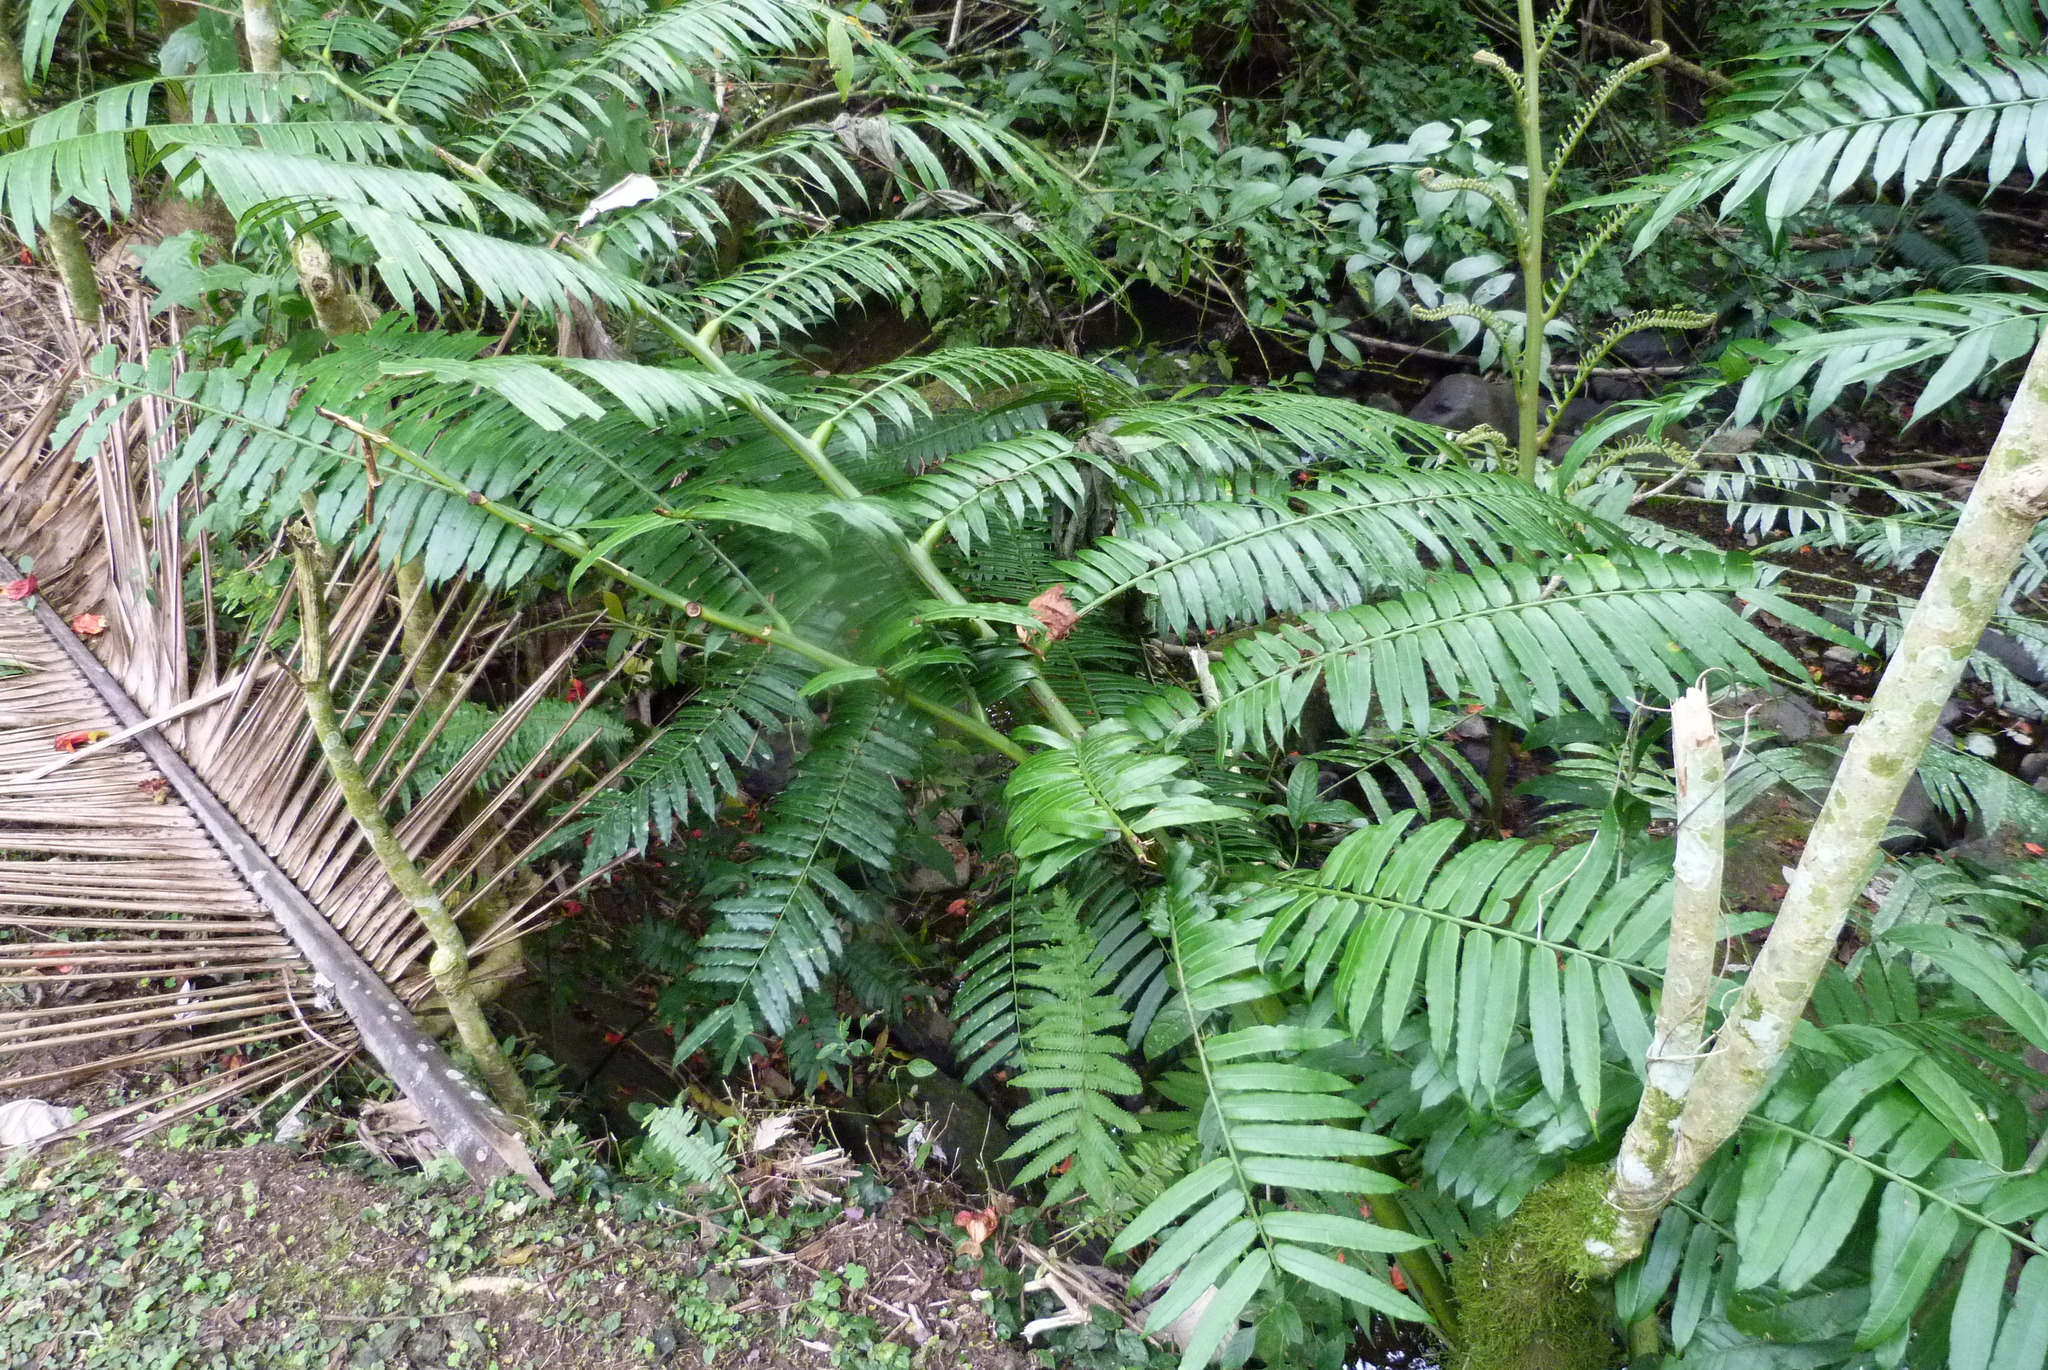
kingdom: Plantae
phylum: Tracheophyta
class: Polypodiopsida
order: Marattiales
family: Marattiaceae
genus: Ptisana
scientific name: Ptisana salicina
